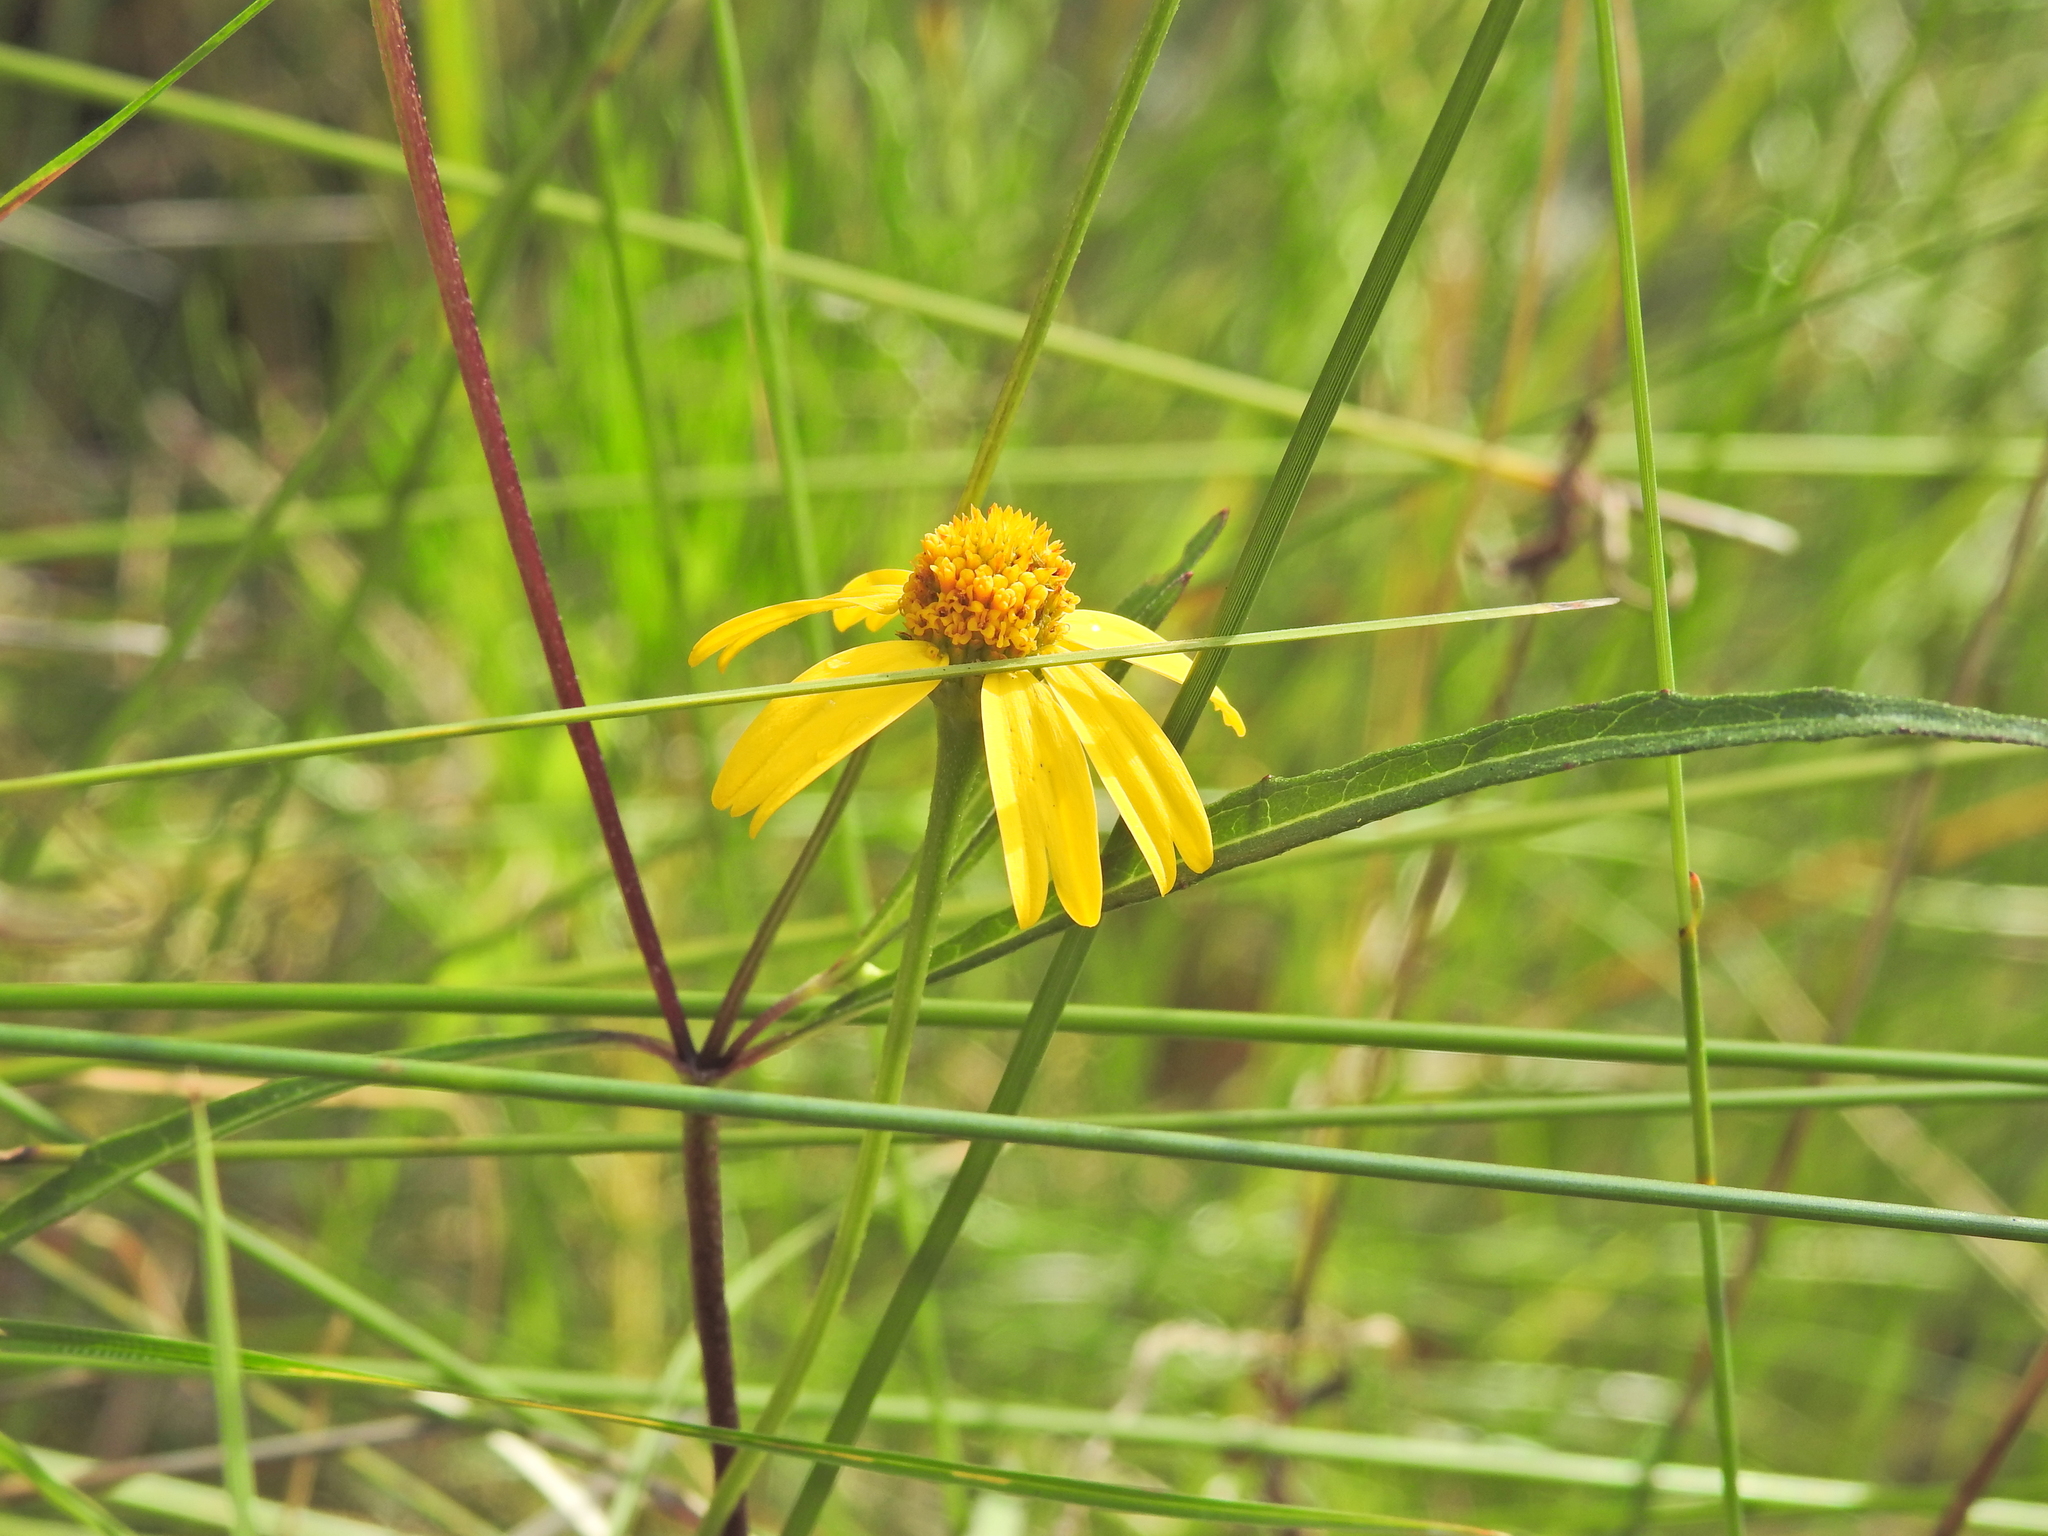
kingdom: Plantae
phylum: Tracheophyta
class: Magnoliopsida
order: Asterales
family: Asteraceae
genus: Acmella
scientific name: Acmella grandiflora
